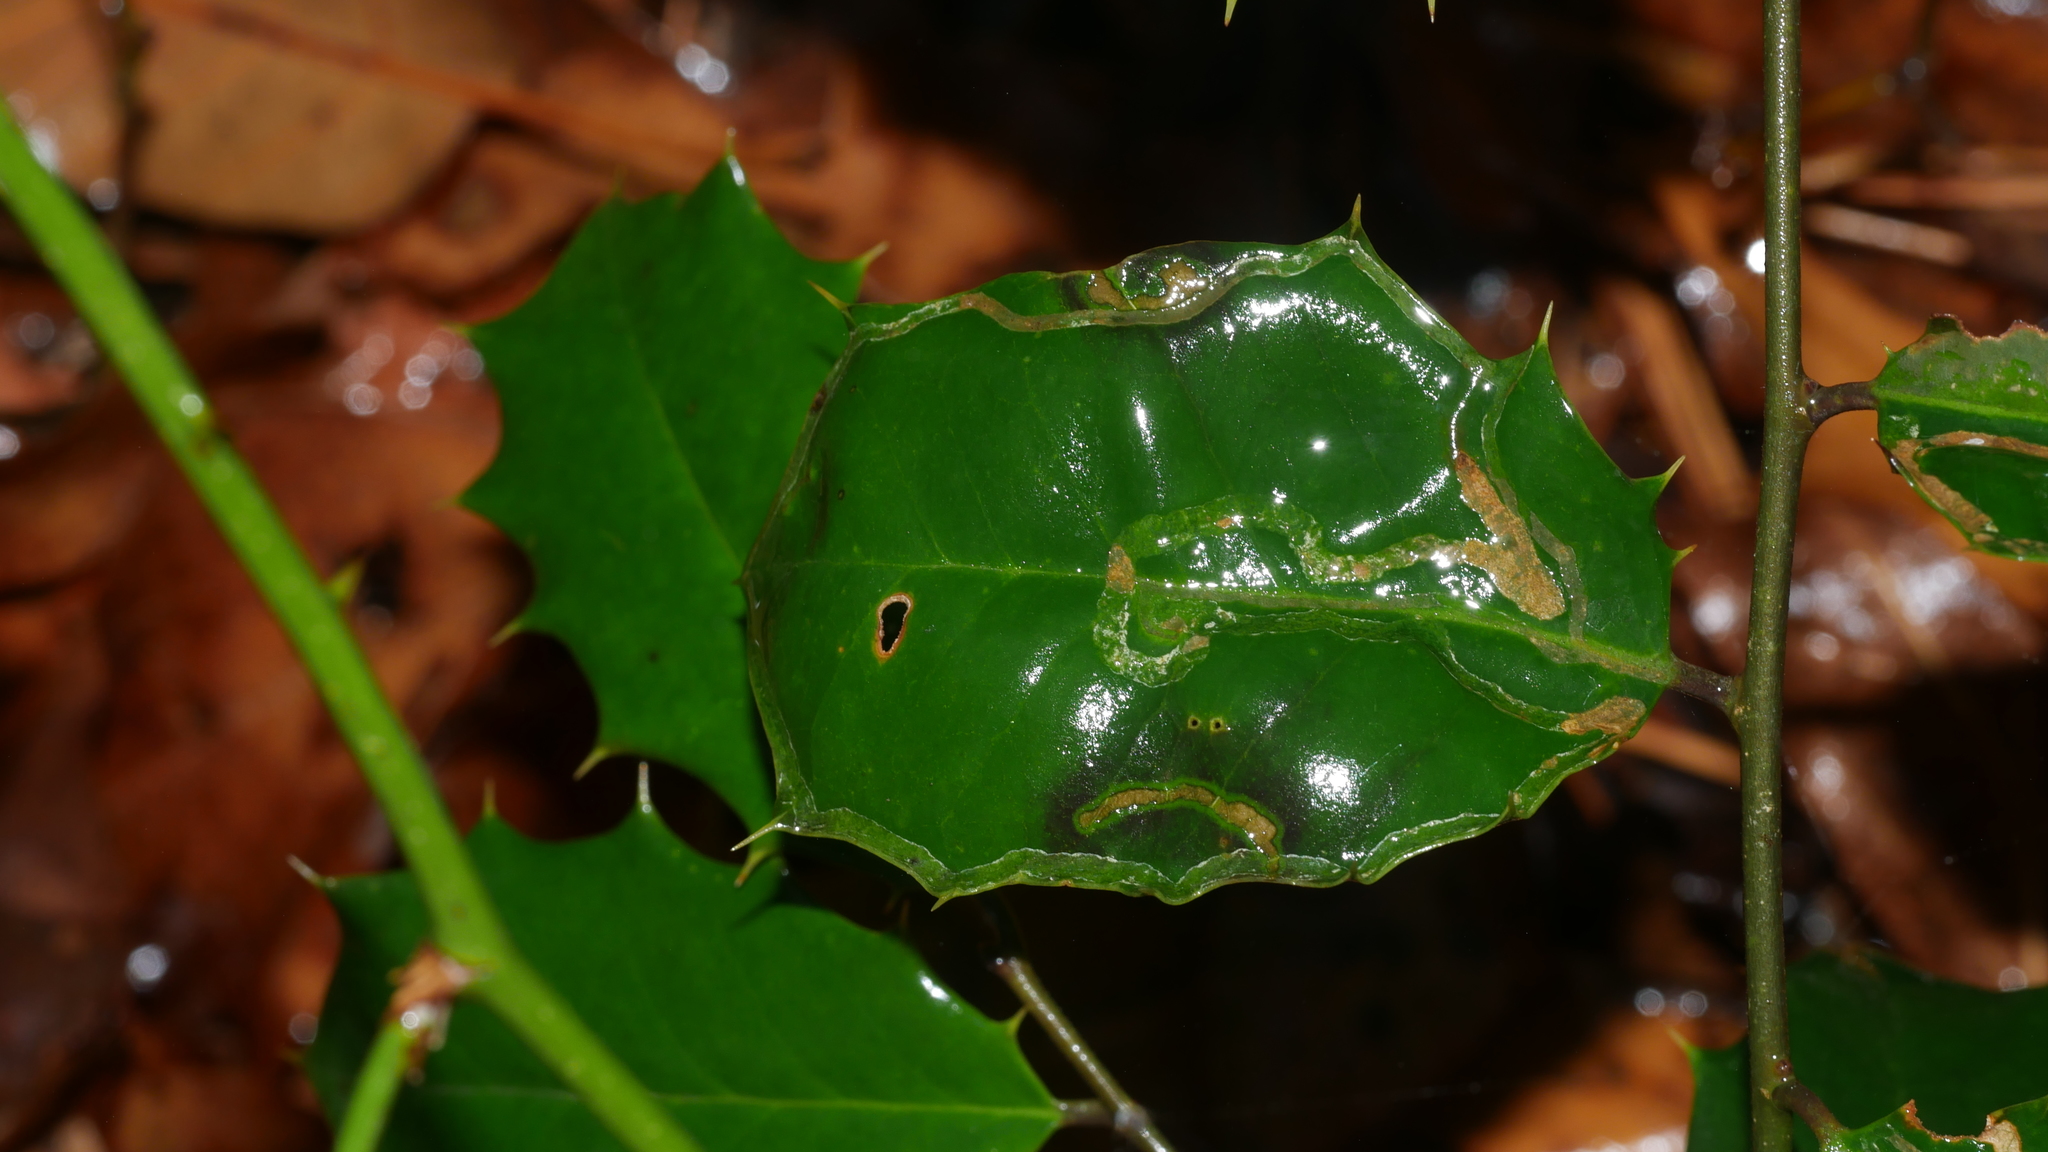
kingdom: Animalia
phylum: Arthropoda
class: Insecta
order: Diptera
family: Agromyzidae
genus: Phytomyza
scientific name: Phytomyza opacae
